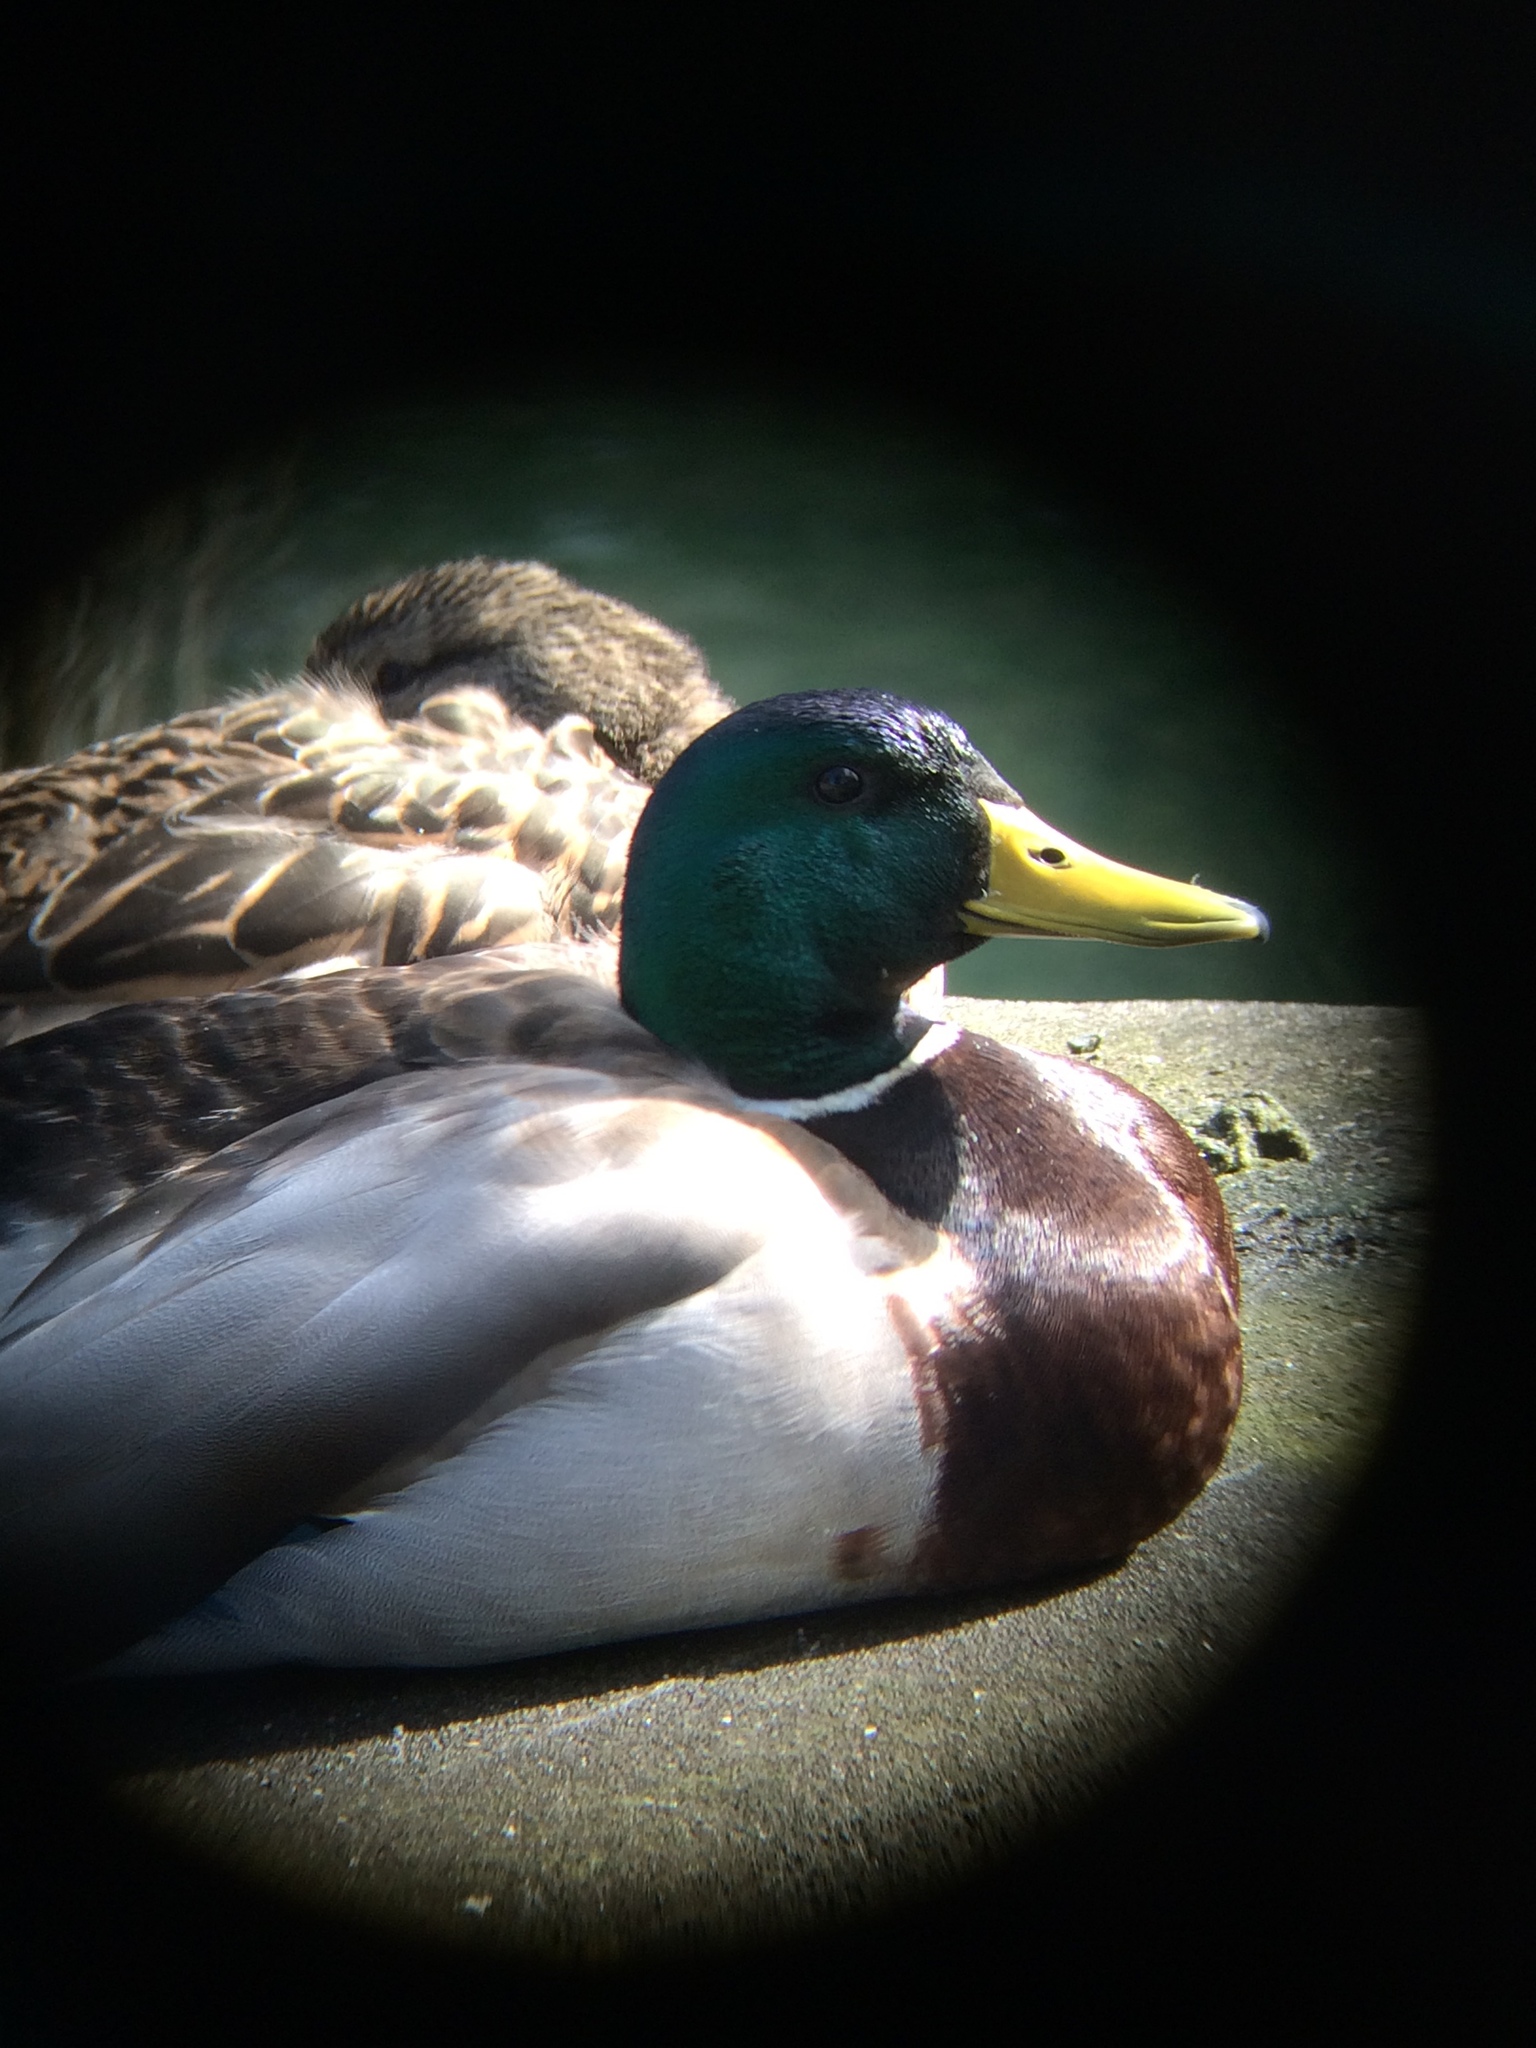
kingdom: Animalia
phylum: Chordata
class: Aves
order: Anseriformes
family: Anatidae
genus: Anas
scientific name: Anas platyrhynchos
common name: Mallard
